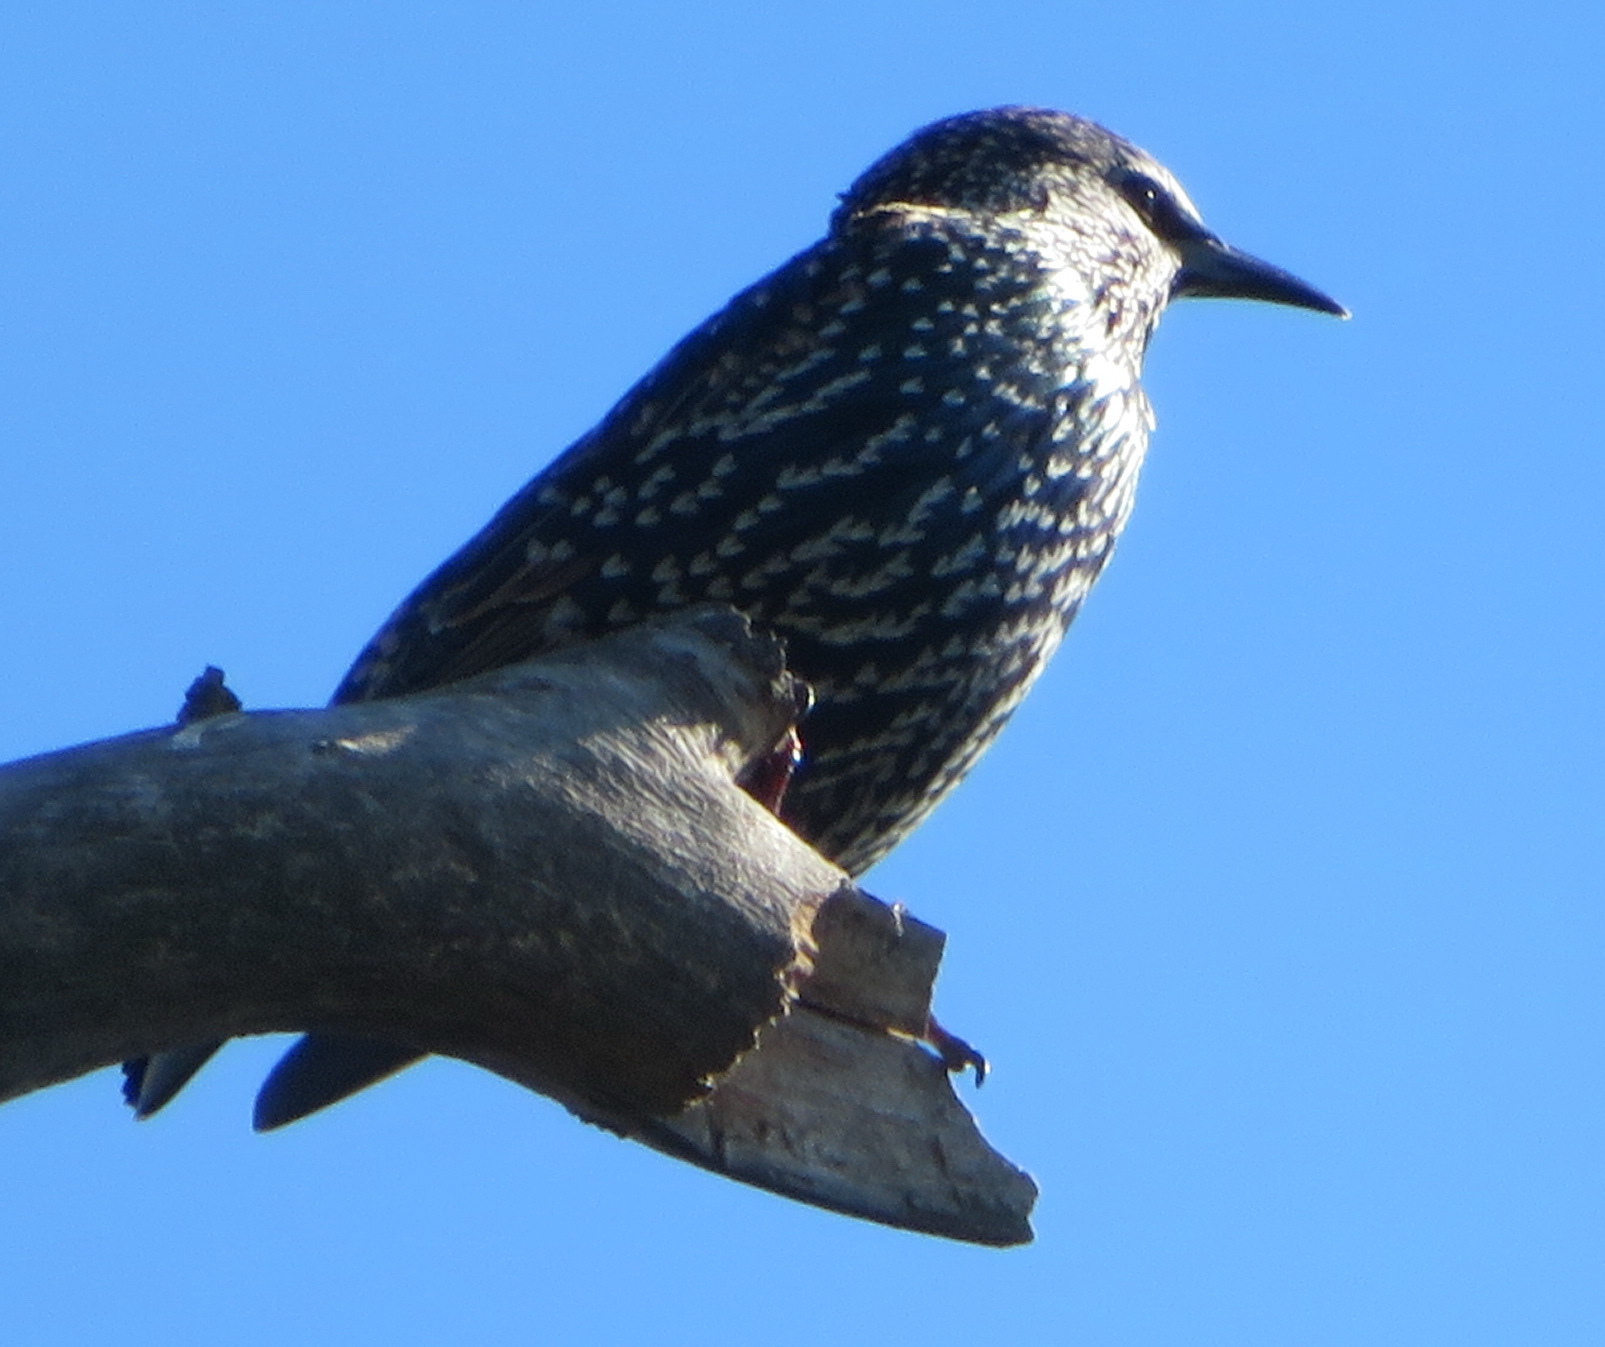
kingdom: Animalia
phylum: Chordata
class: Aves
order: Passeriformes
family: Sturnidae
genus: Sturnus
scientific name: Sturnus vulgaris
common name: Common starling
